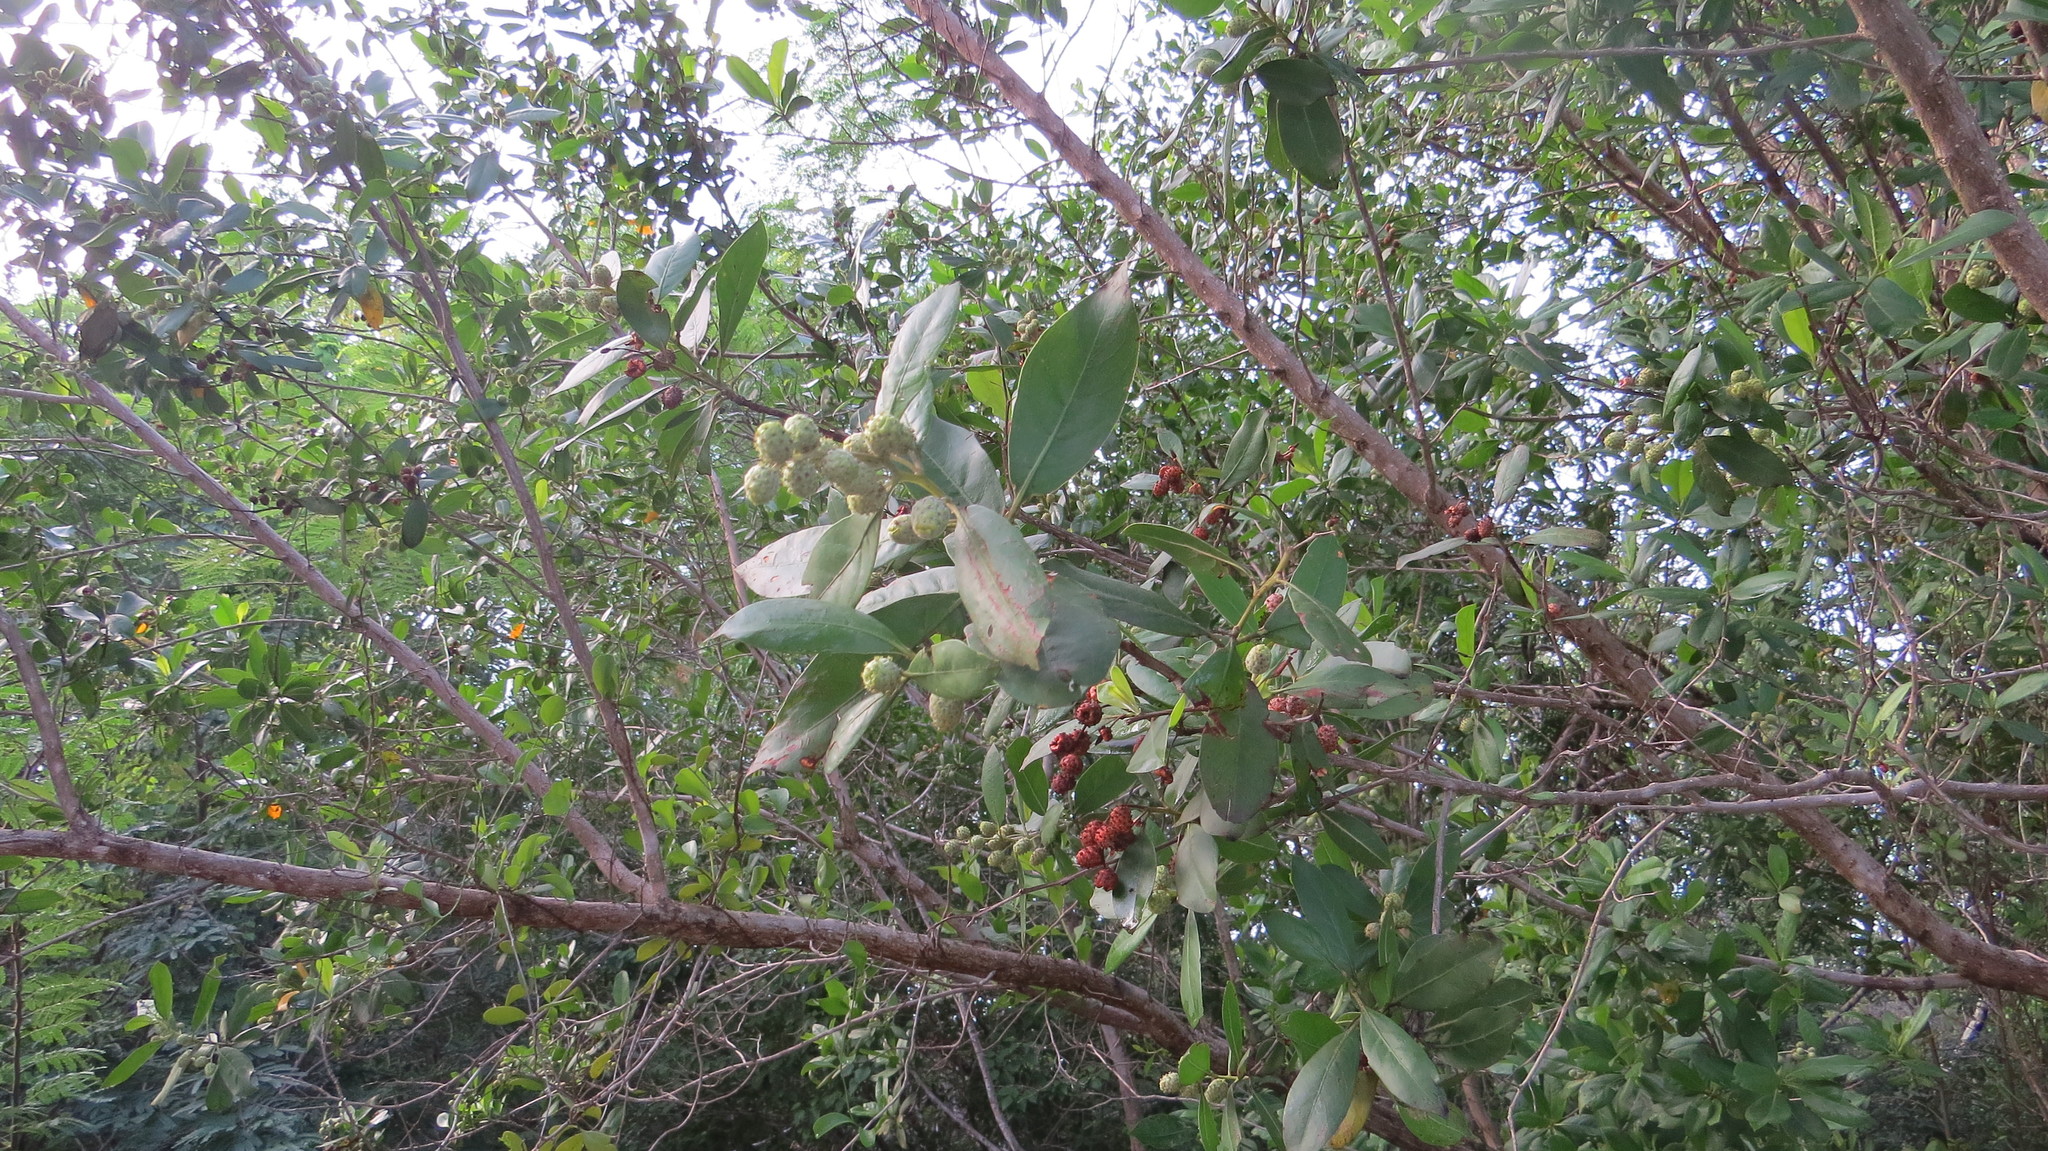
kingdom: Plantae
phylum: Tracheophyta
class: Magnoliopsida
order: Myrtales
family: Combretaceae
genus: Conocarpus
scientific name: Conocarpus erectus
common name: Button mangrove
